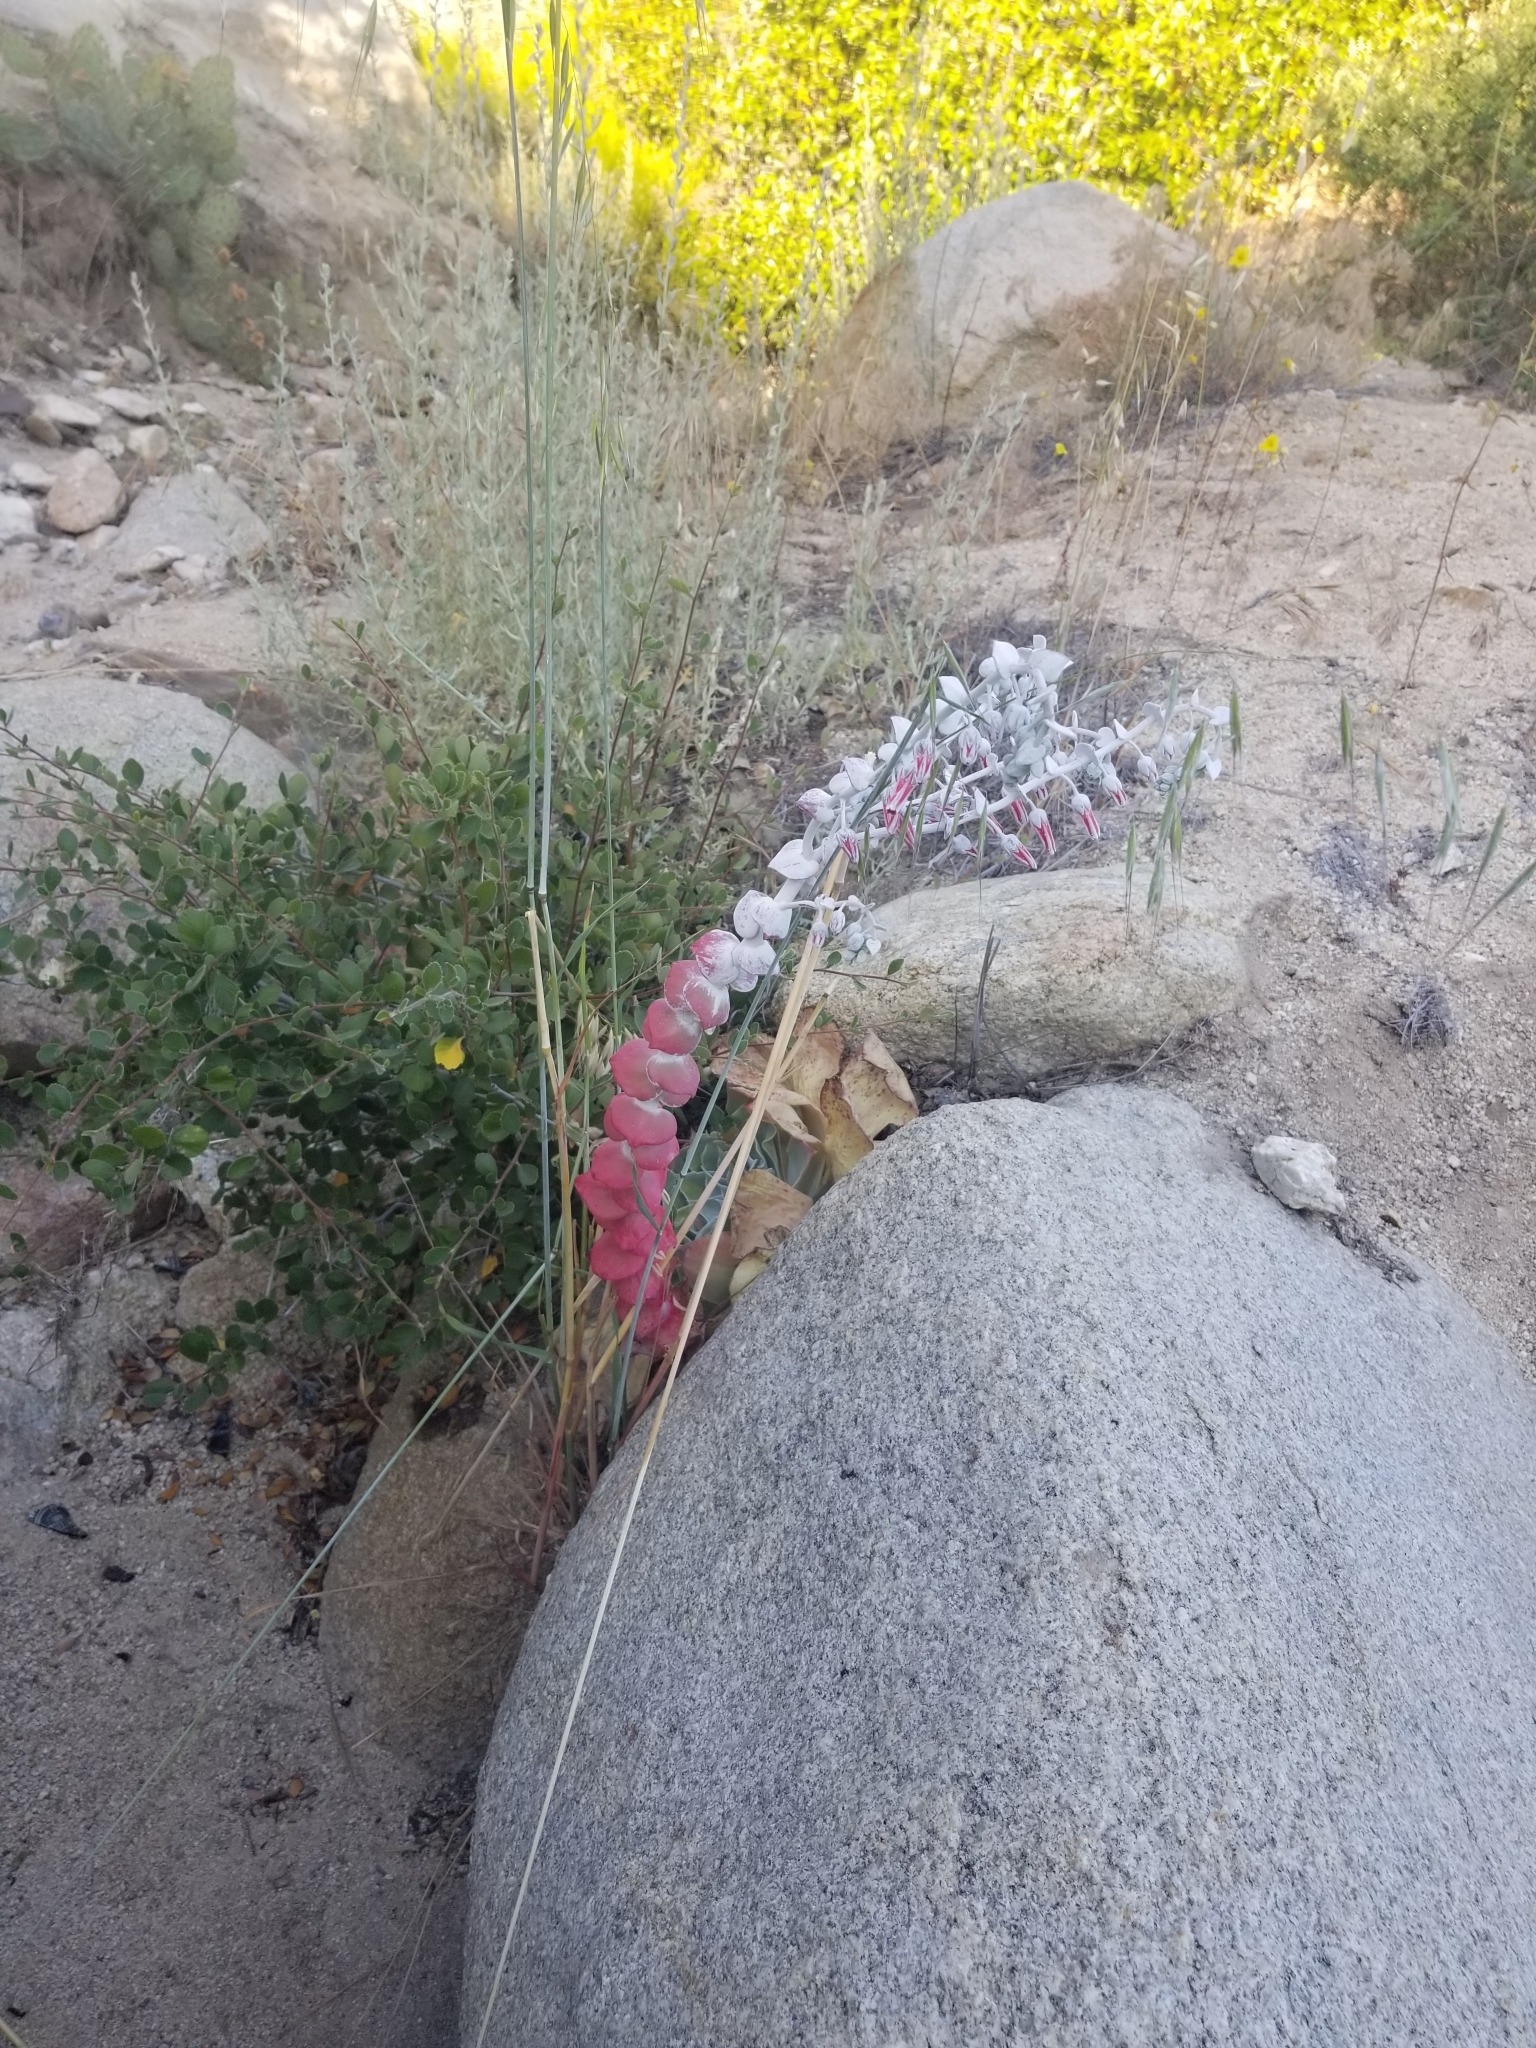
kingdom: Plantae
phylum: Tracheophyta
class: Magnoliopsida
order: Saxifragales
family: Crassulaceae
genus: Dudleya
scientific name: Dudleya pulverulenta
